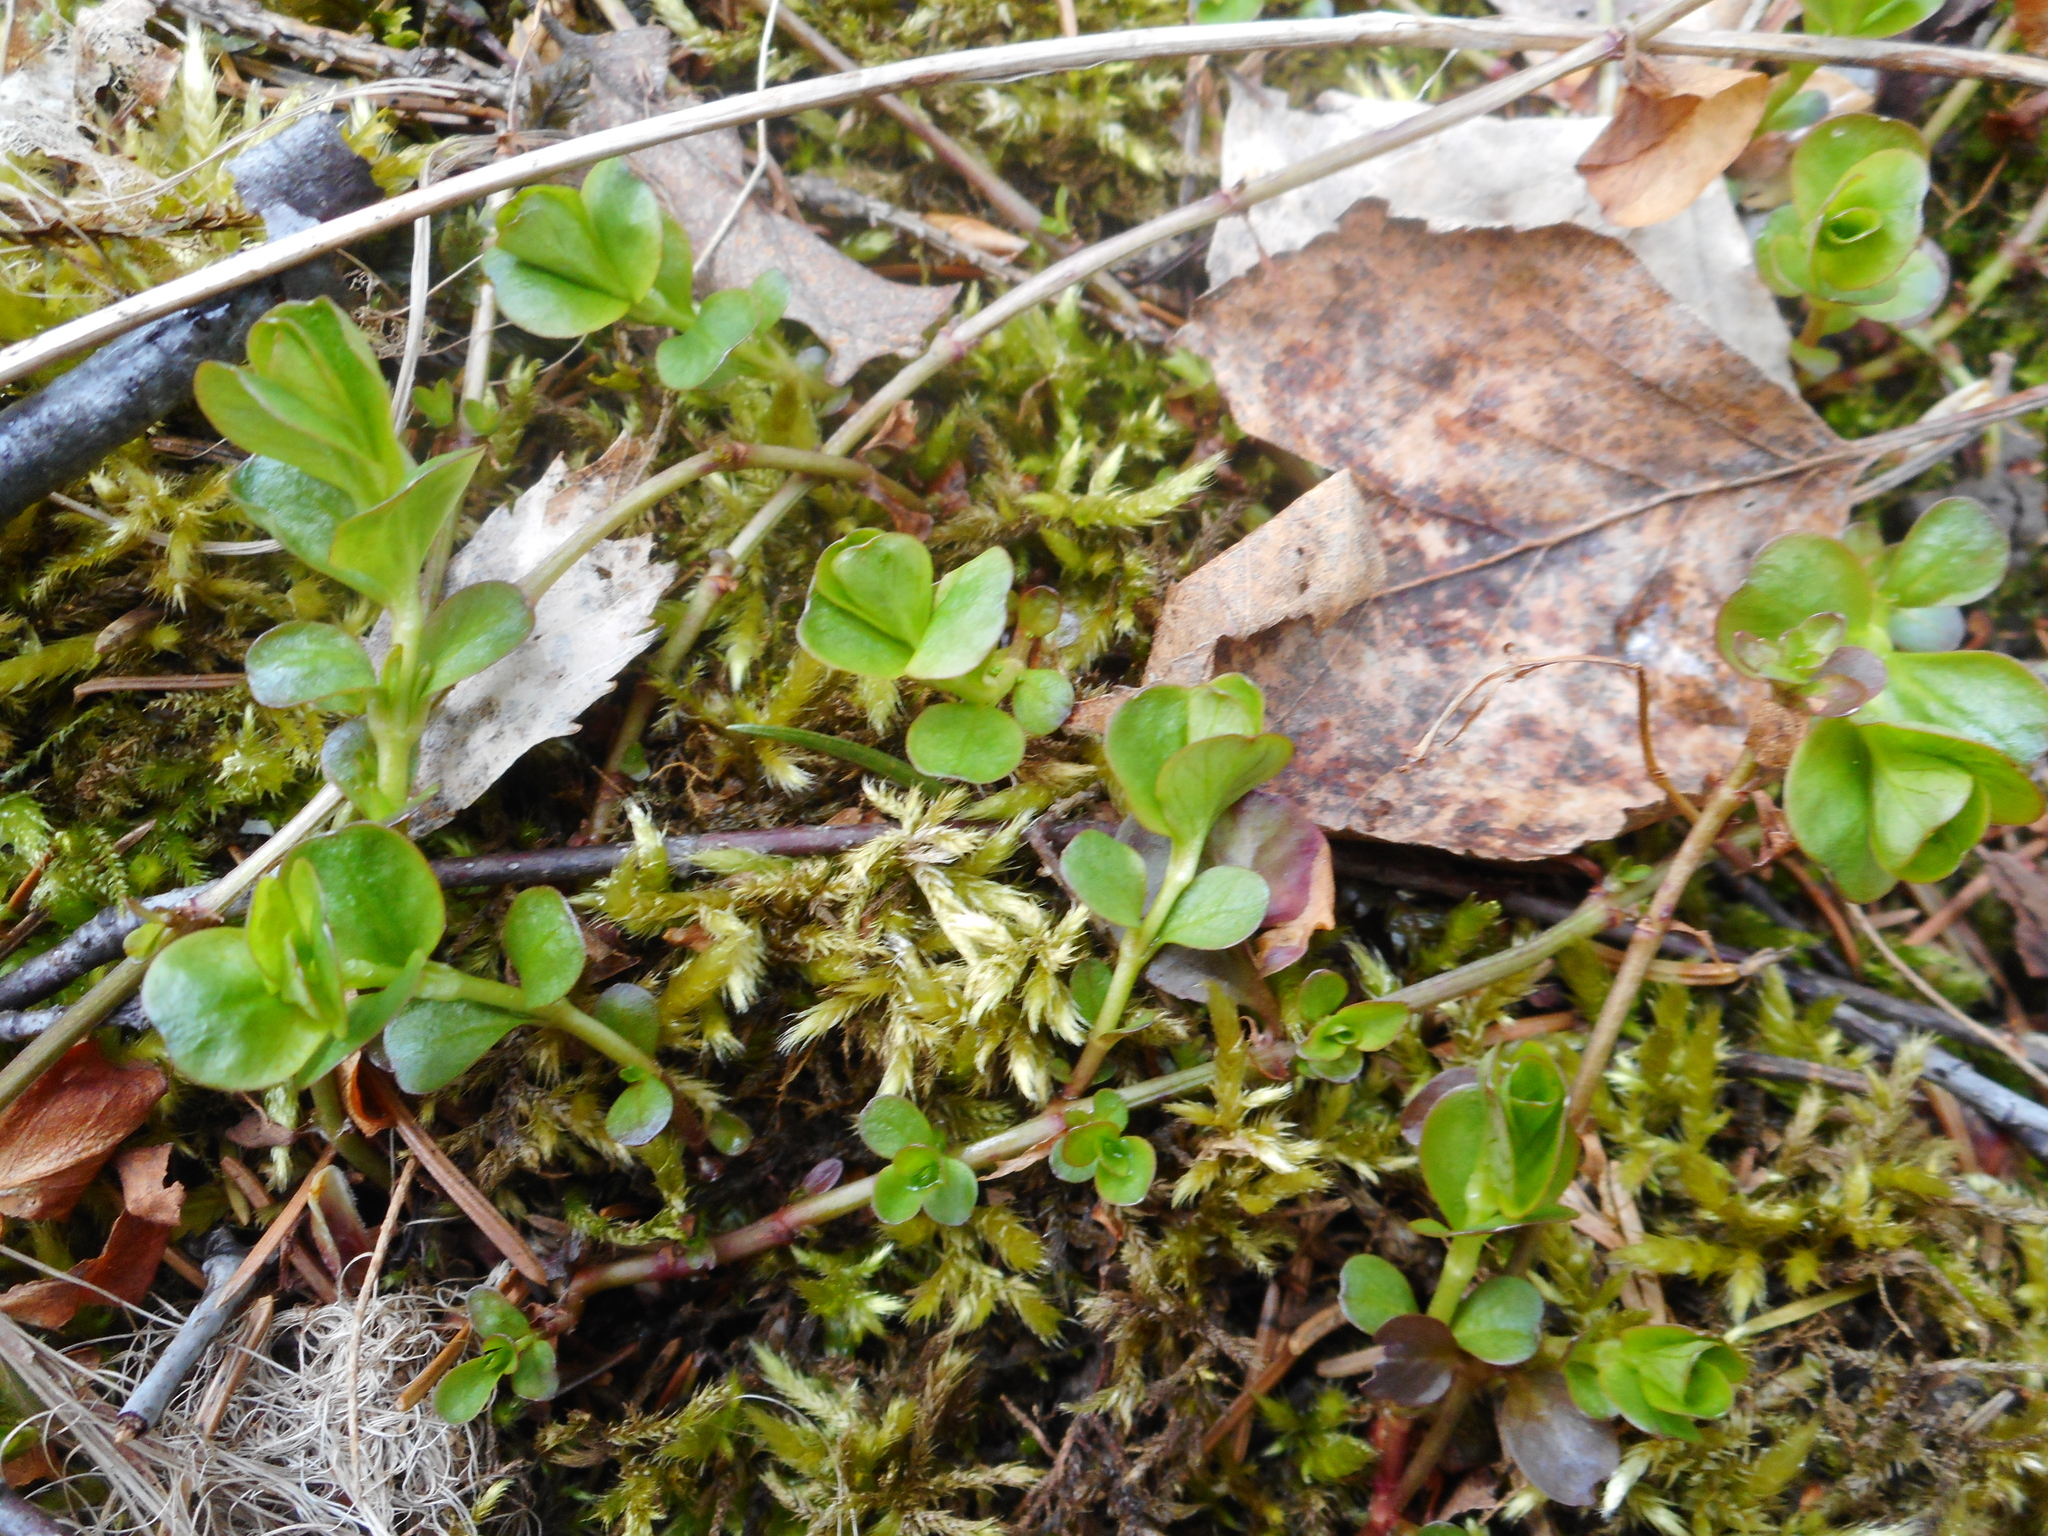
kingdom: Plantae
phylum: Tracheophyta
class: Magnoliopsida
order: Ericales
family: Primulaceae
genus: Lysimachia
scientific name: Lysimachia nummularia
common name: Moneywort
